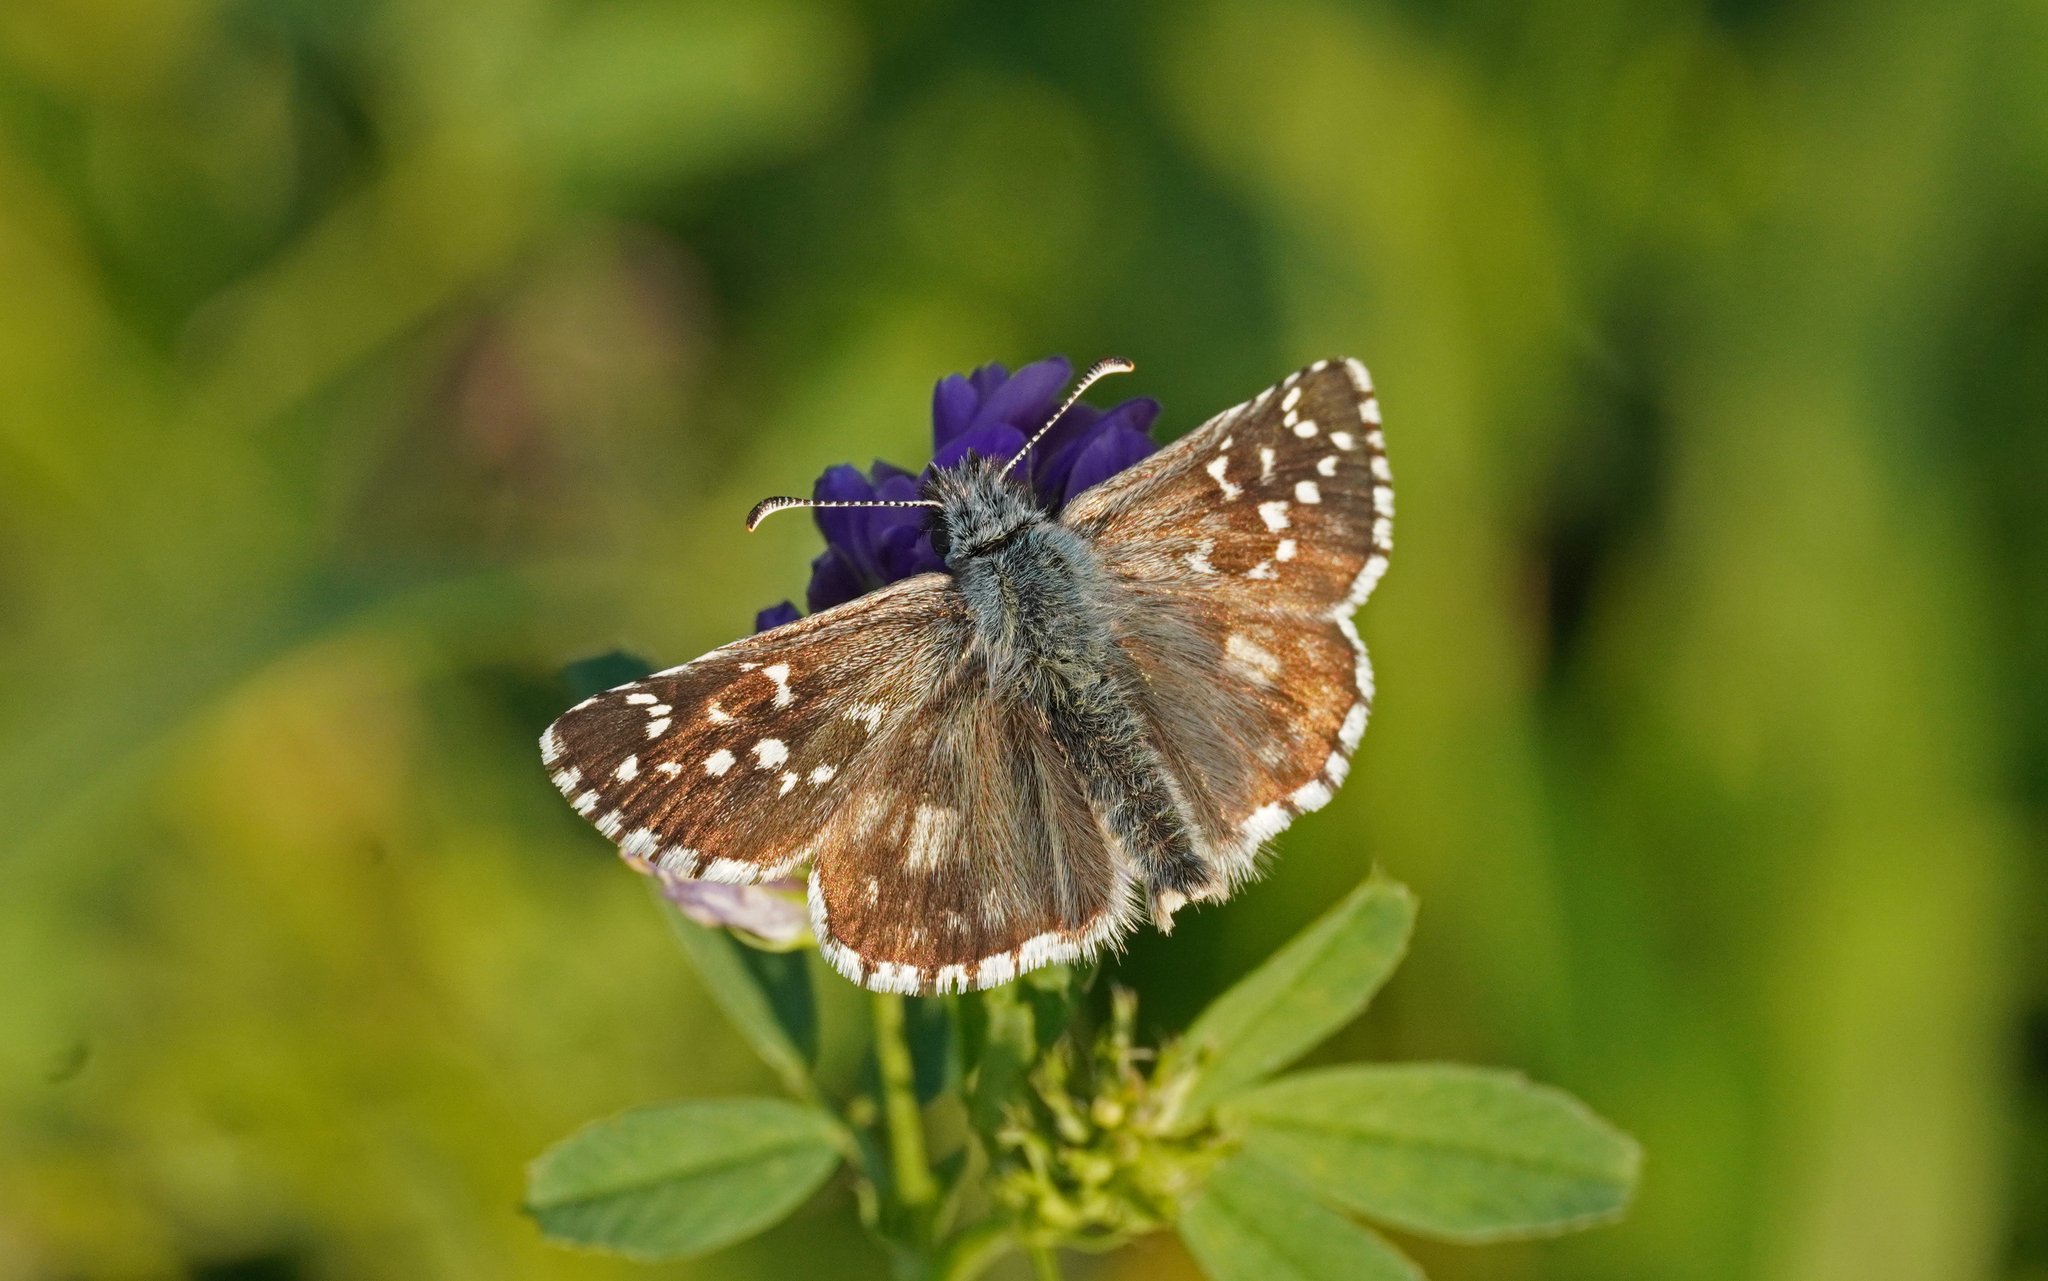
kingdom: Animalia
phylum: Arthropoda
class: Insecta
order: Lepidoptera
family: Hesperiidae
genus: Pyrgus
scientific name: Pyrgus armoricanus
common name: Oberthür's grizzled skipper
